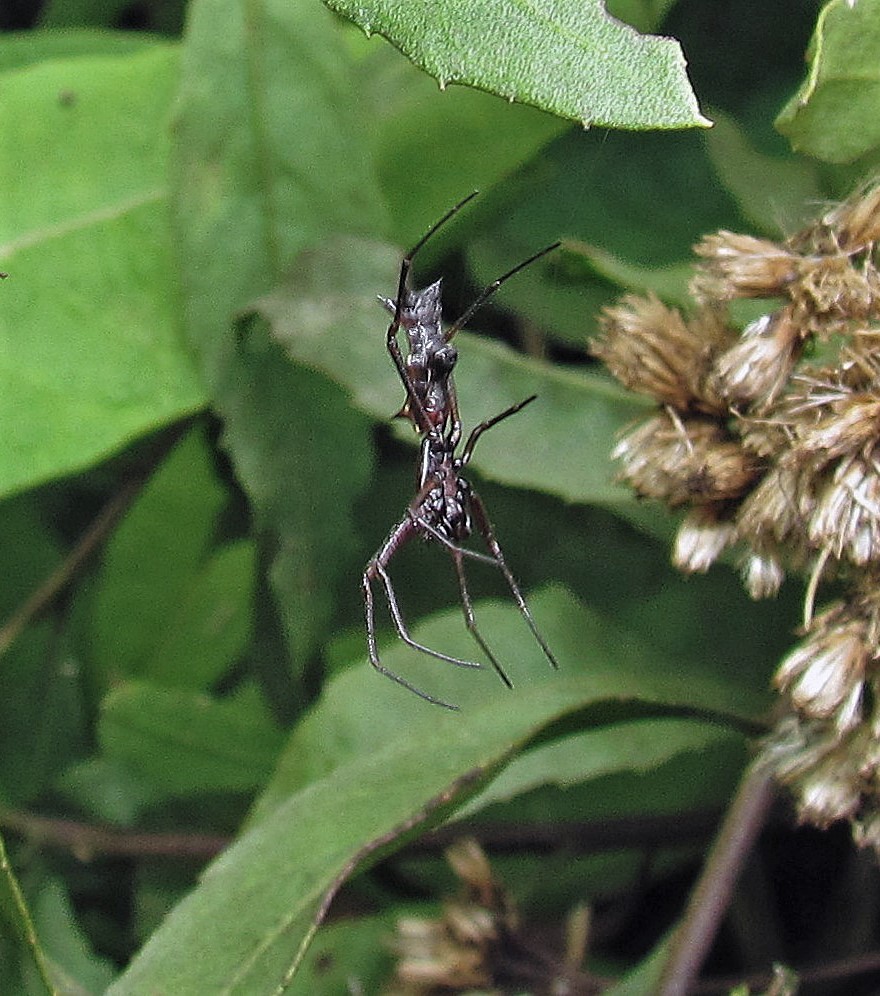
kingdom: Animalia
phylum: Arthropoda
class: Arachnida
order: Araneae
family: Araneidae
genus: Micrathena
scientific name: Micrathena swainsoni
